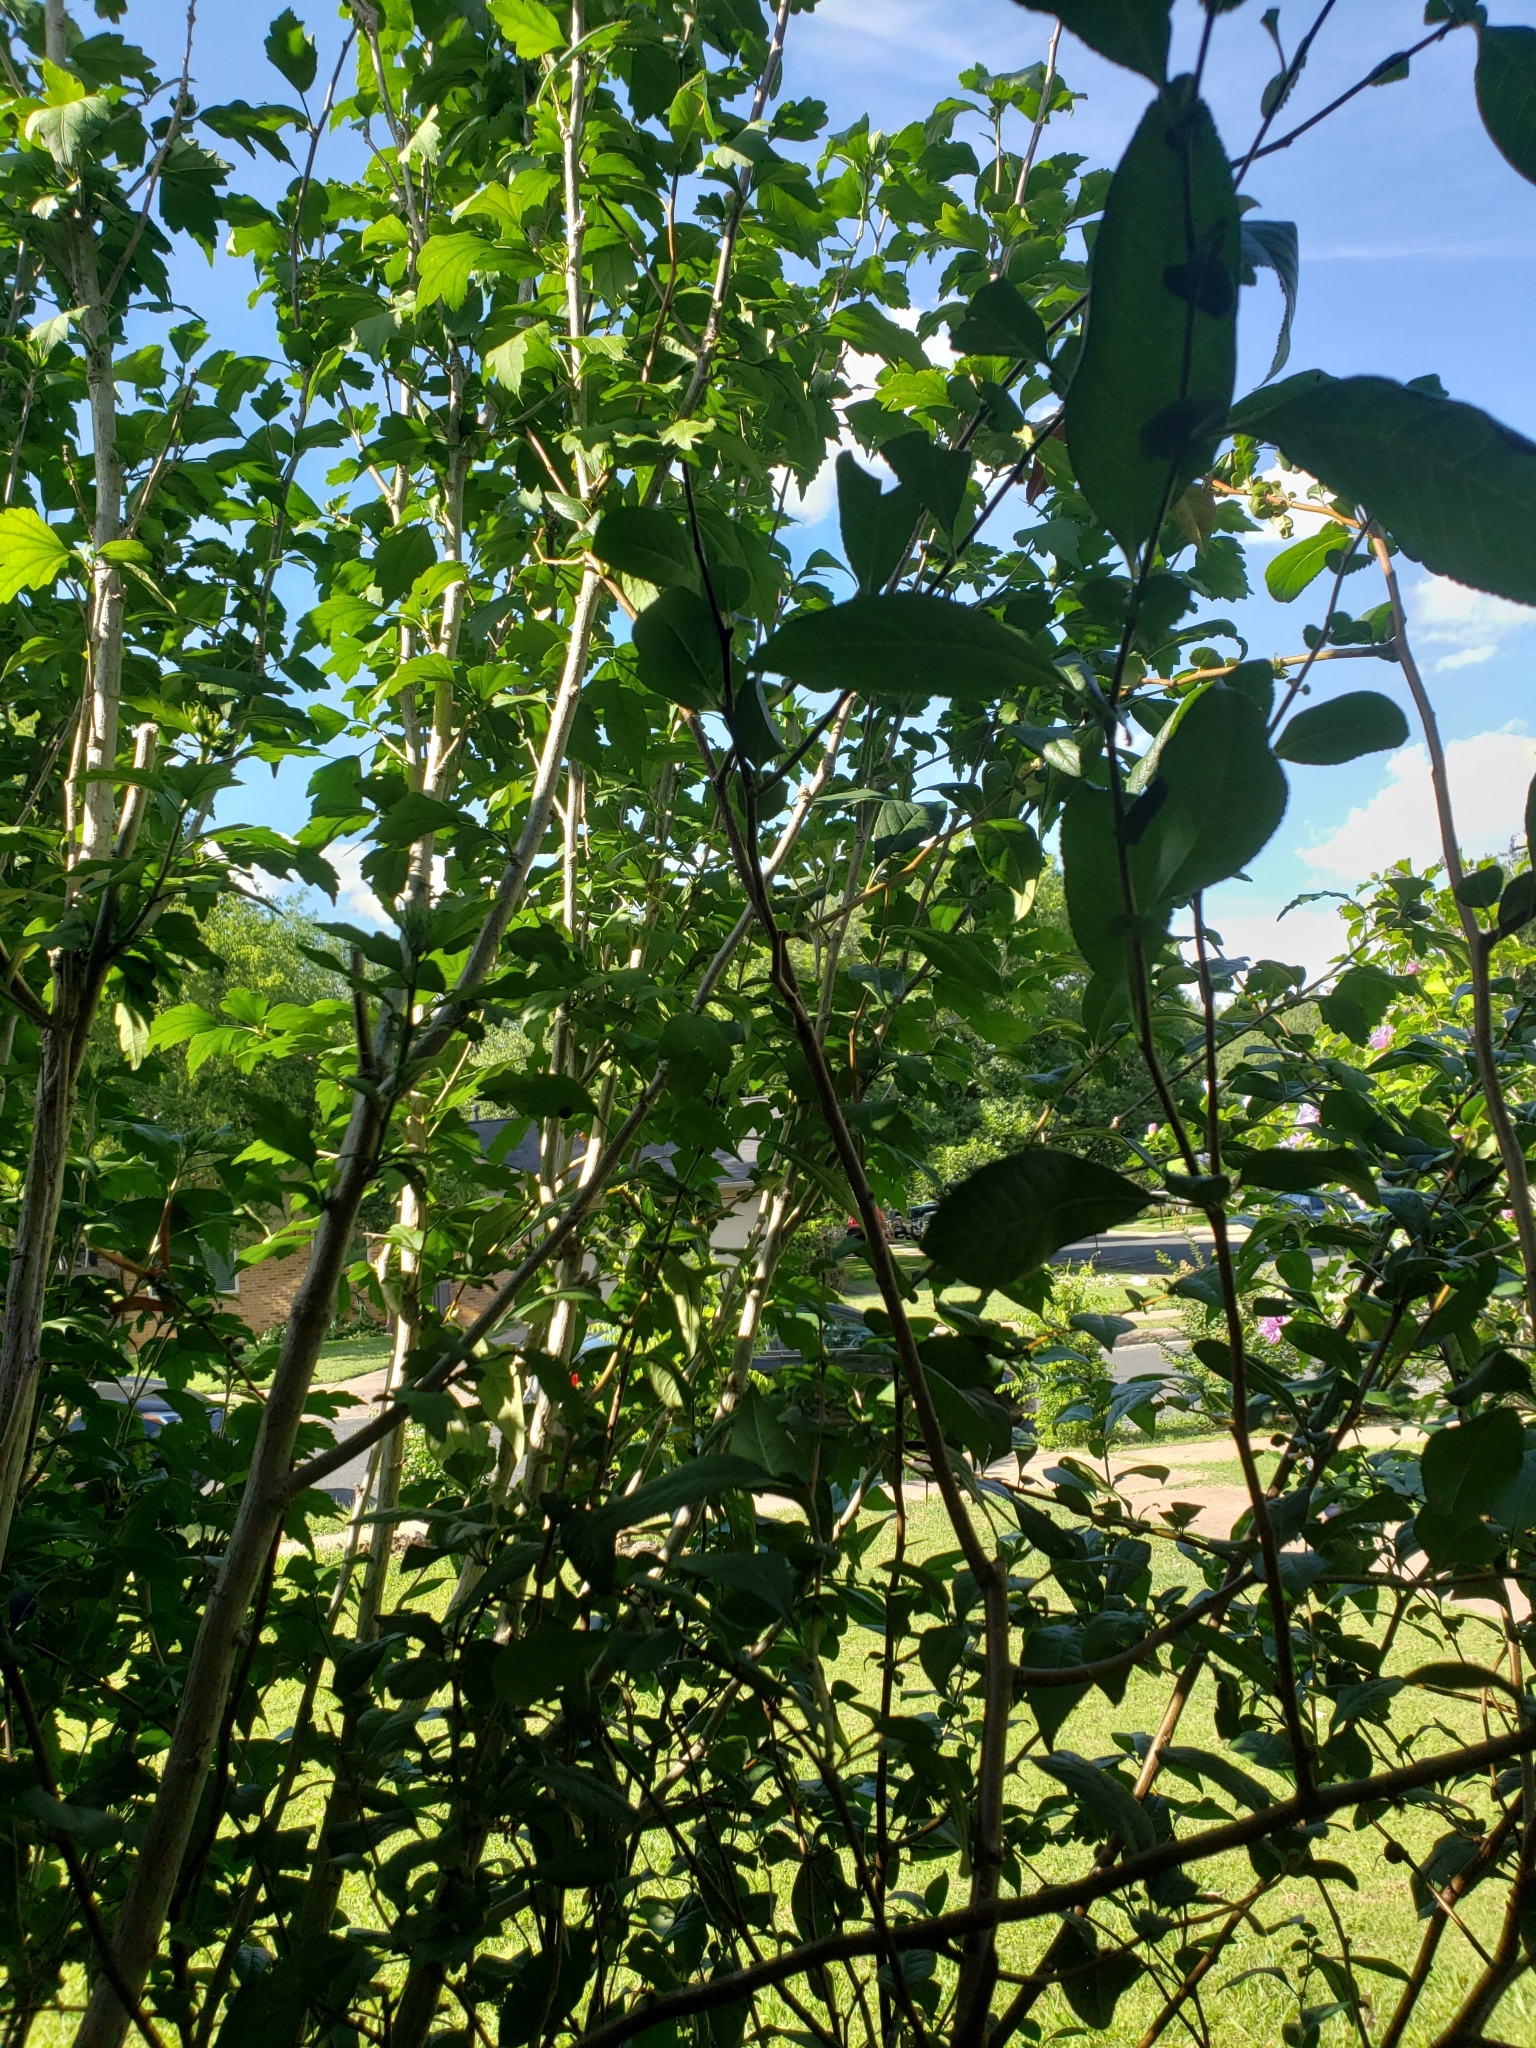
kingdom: Plantae
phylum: Tracheophyta
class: Magnoliopsida
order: Rosales
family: Rosaceae
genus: Chaenomeles
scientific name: Chaenomeles speciosa
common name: Japanese quince
